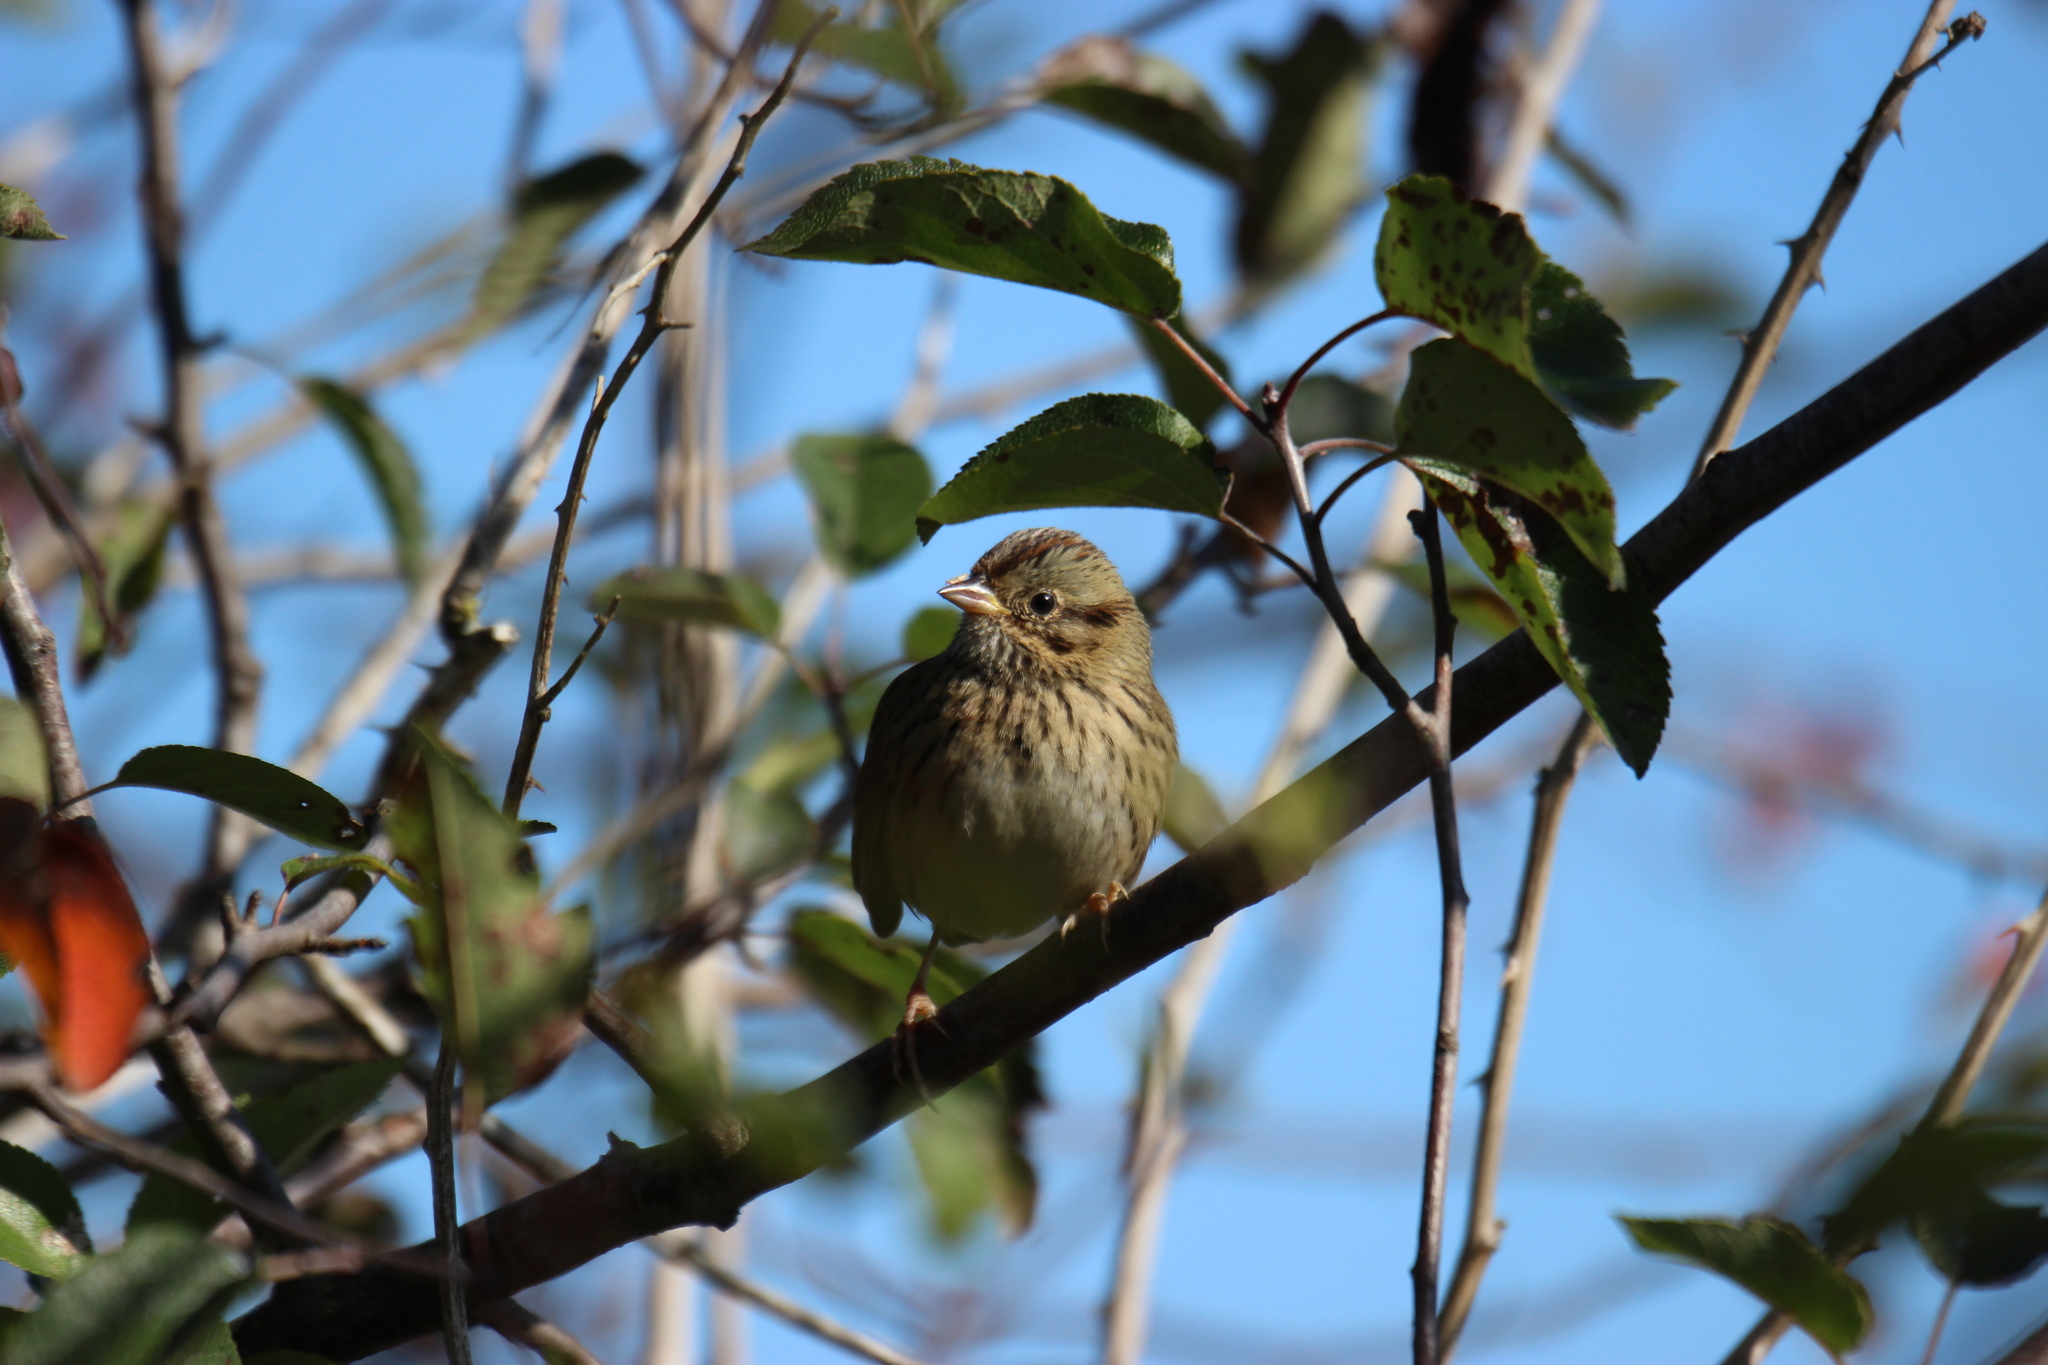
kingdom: Animalia
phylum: Chordata
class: Aves
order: Passeriformes
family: Passerellidae
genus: Melospiza
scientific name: Melospiza lincolnii
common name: Lincoln's sparrow
